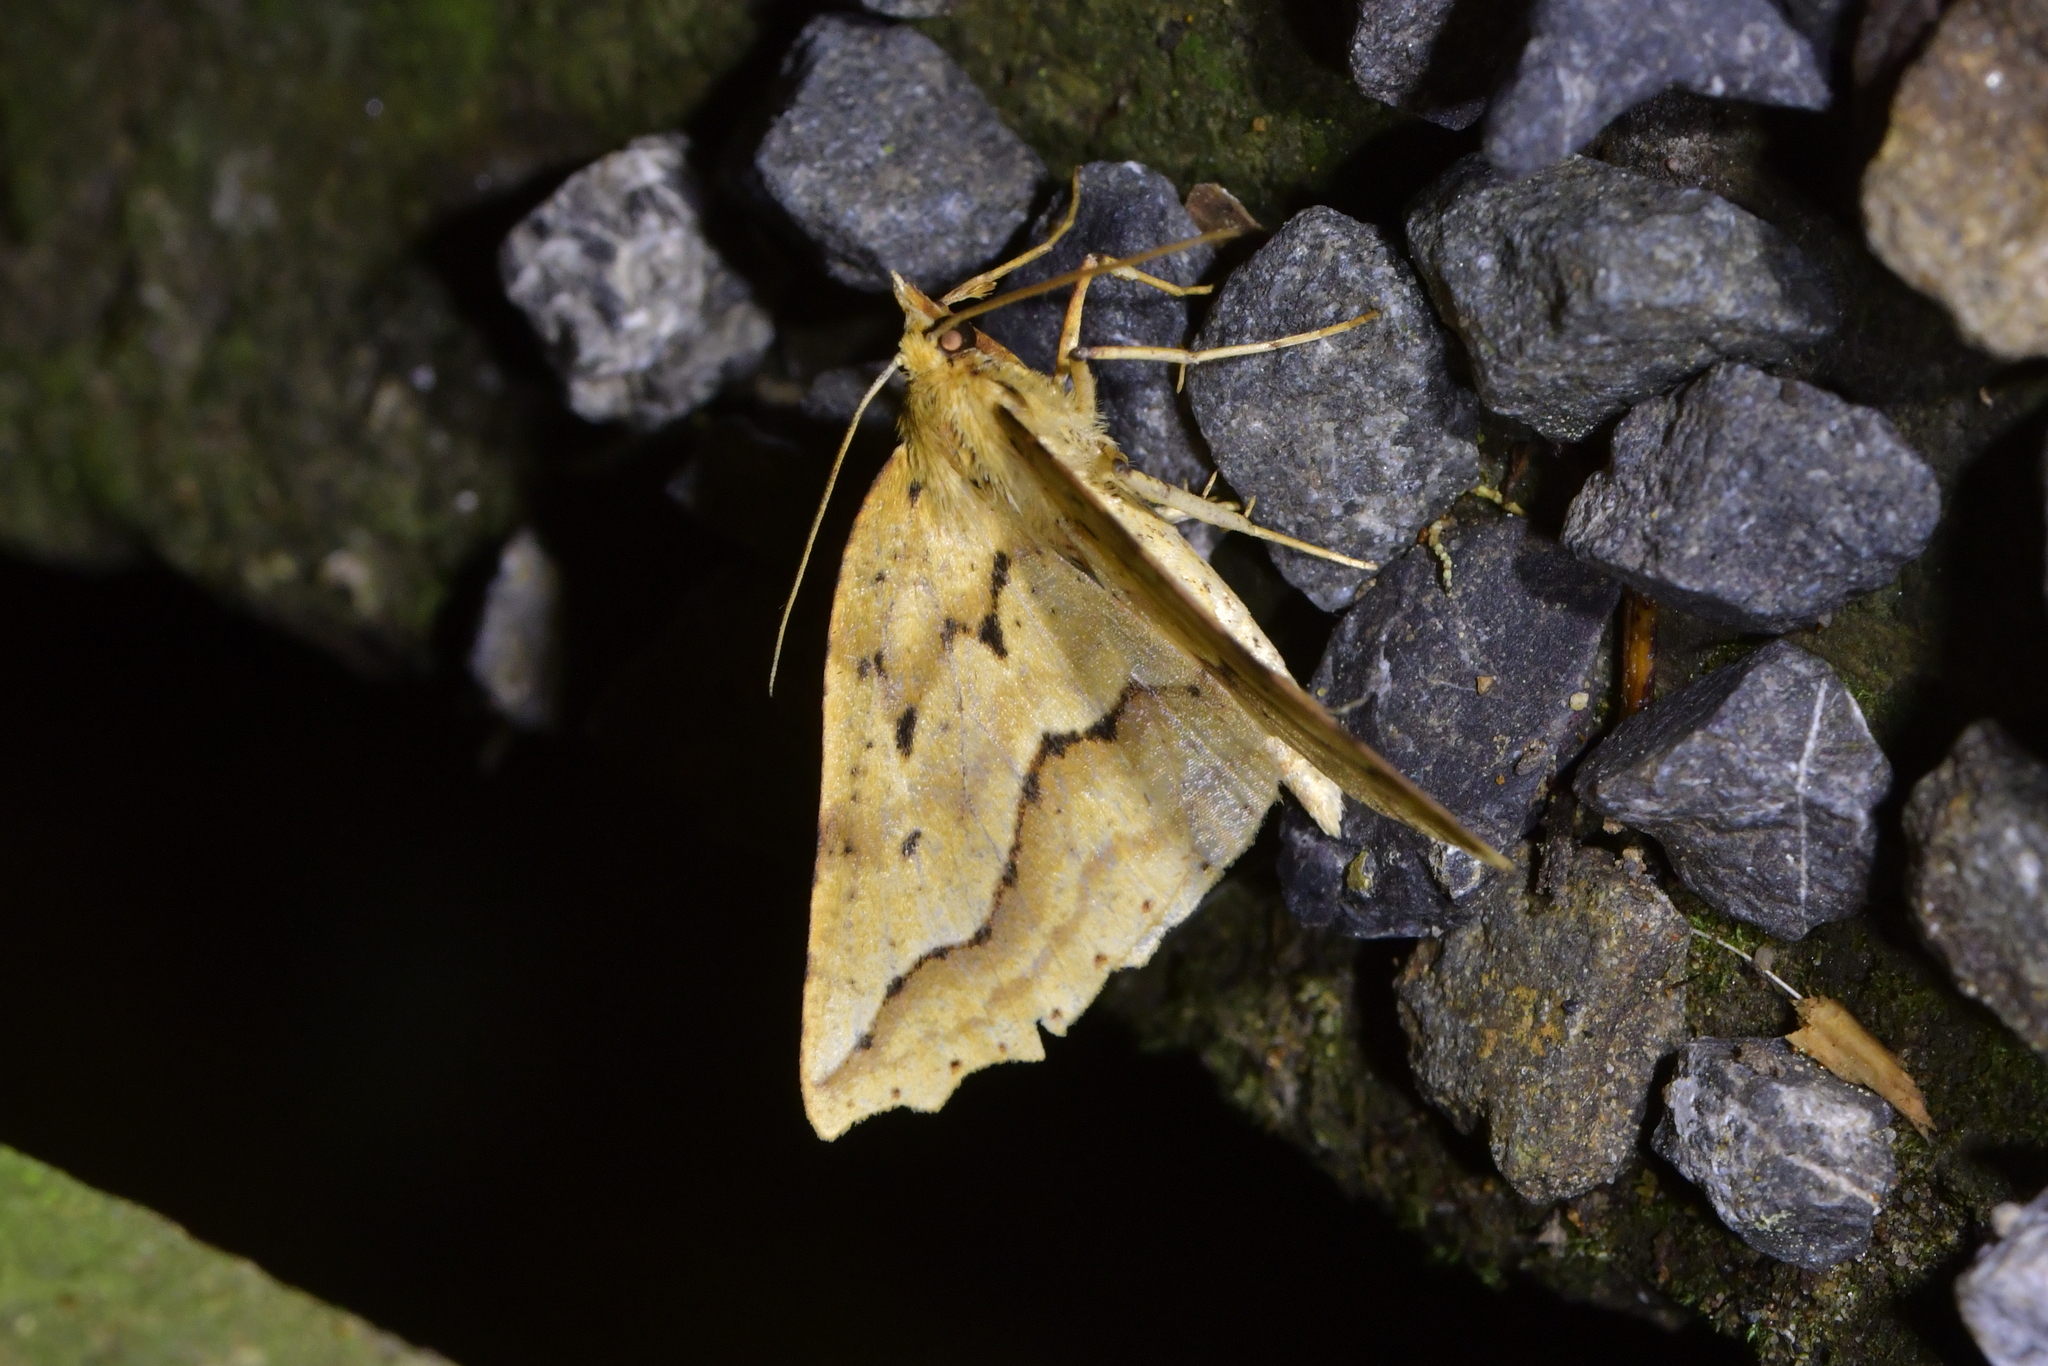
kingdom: Animalia
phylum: Arthropoda
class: Insecta
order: Lepidoptera
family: Geometridae
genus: Ischalis
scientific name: Ischalis variabilis
